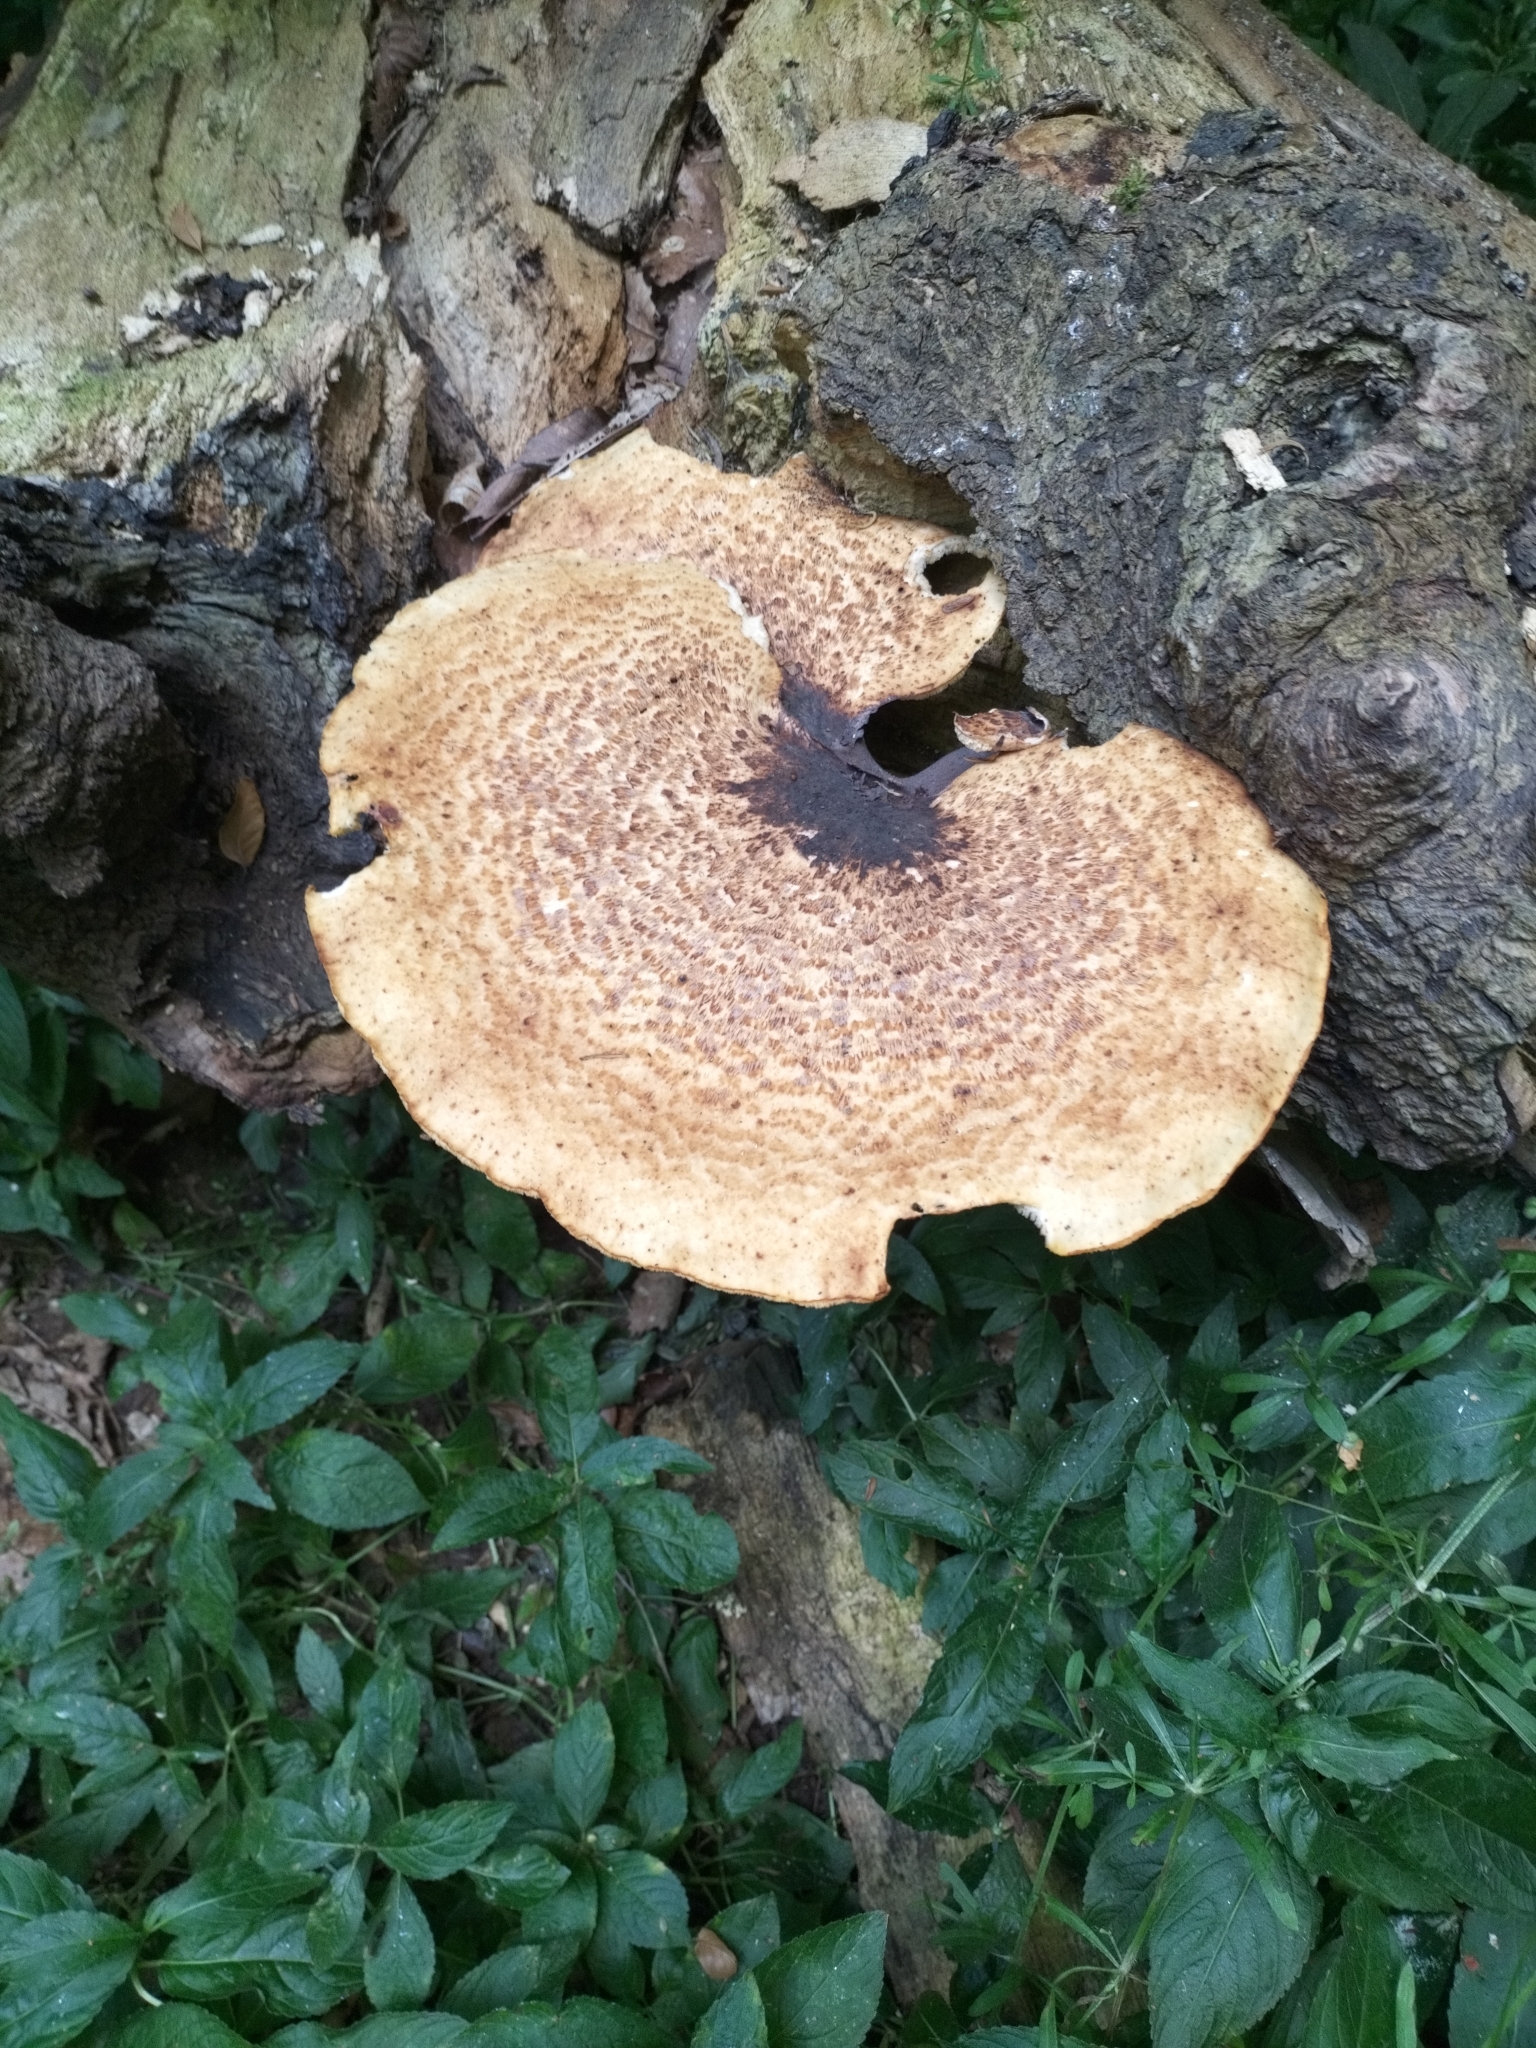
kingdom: Fungi
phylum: Basidiomycota
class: Agaricomycetes
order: Polyporales
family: Polyporaceae
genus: Cerioporus
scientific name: Cerioporus squamosus
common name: Dryad's saddle
